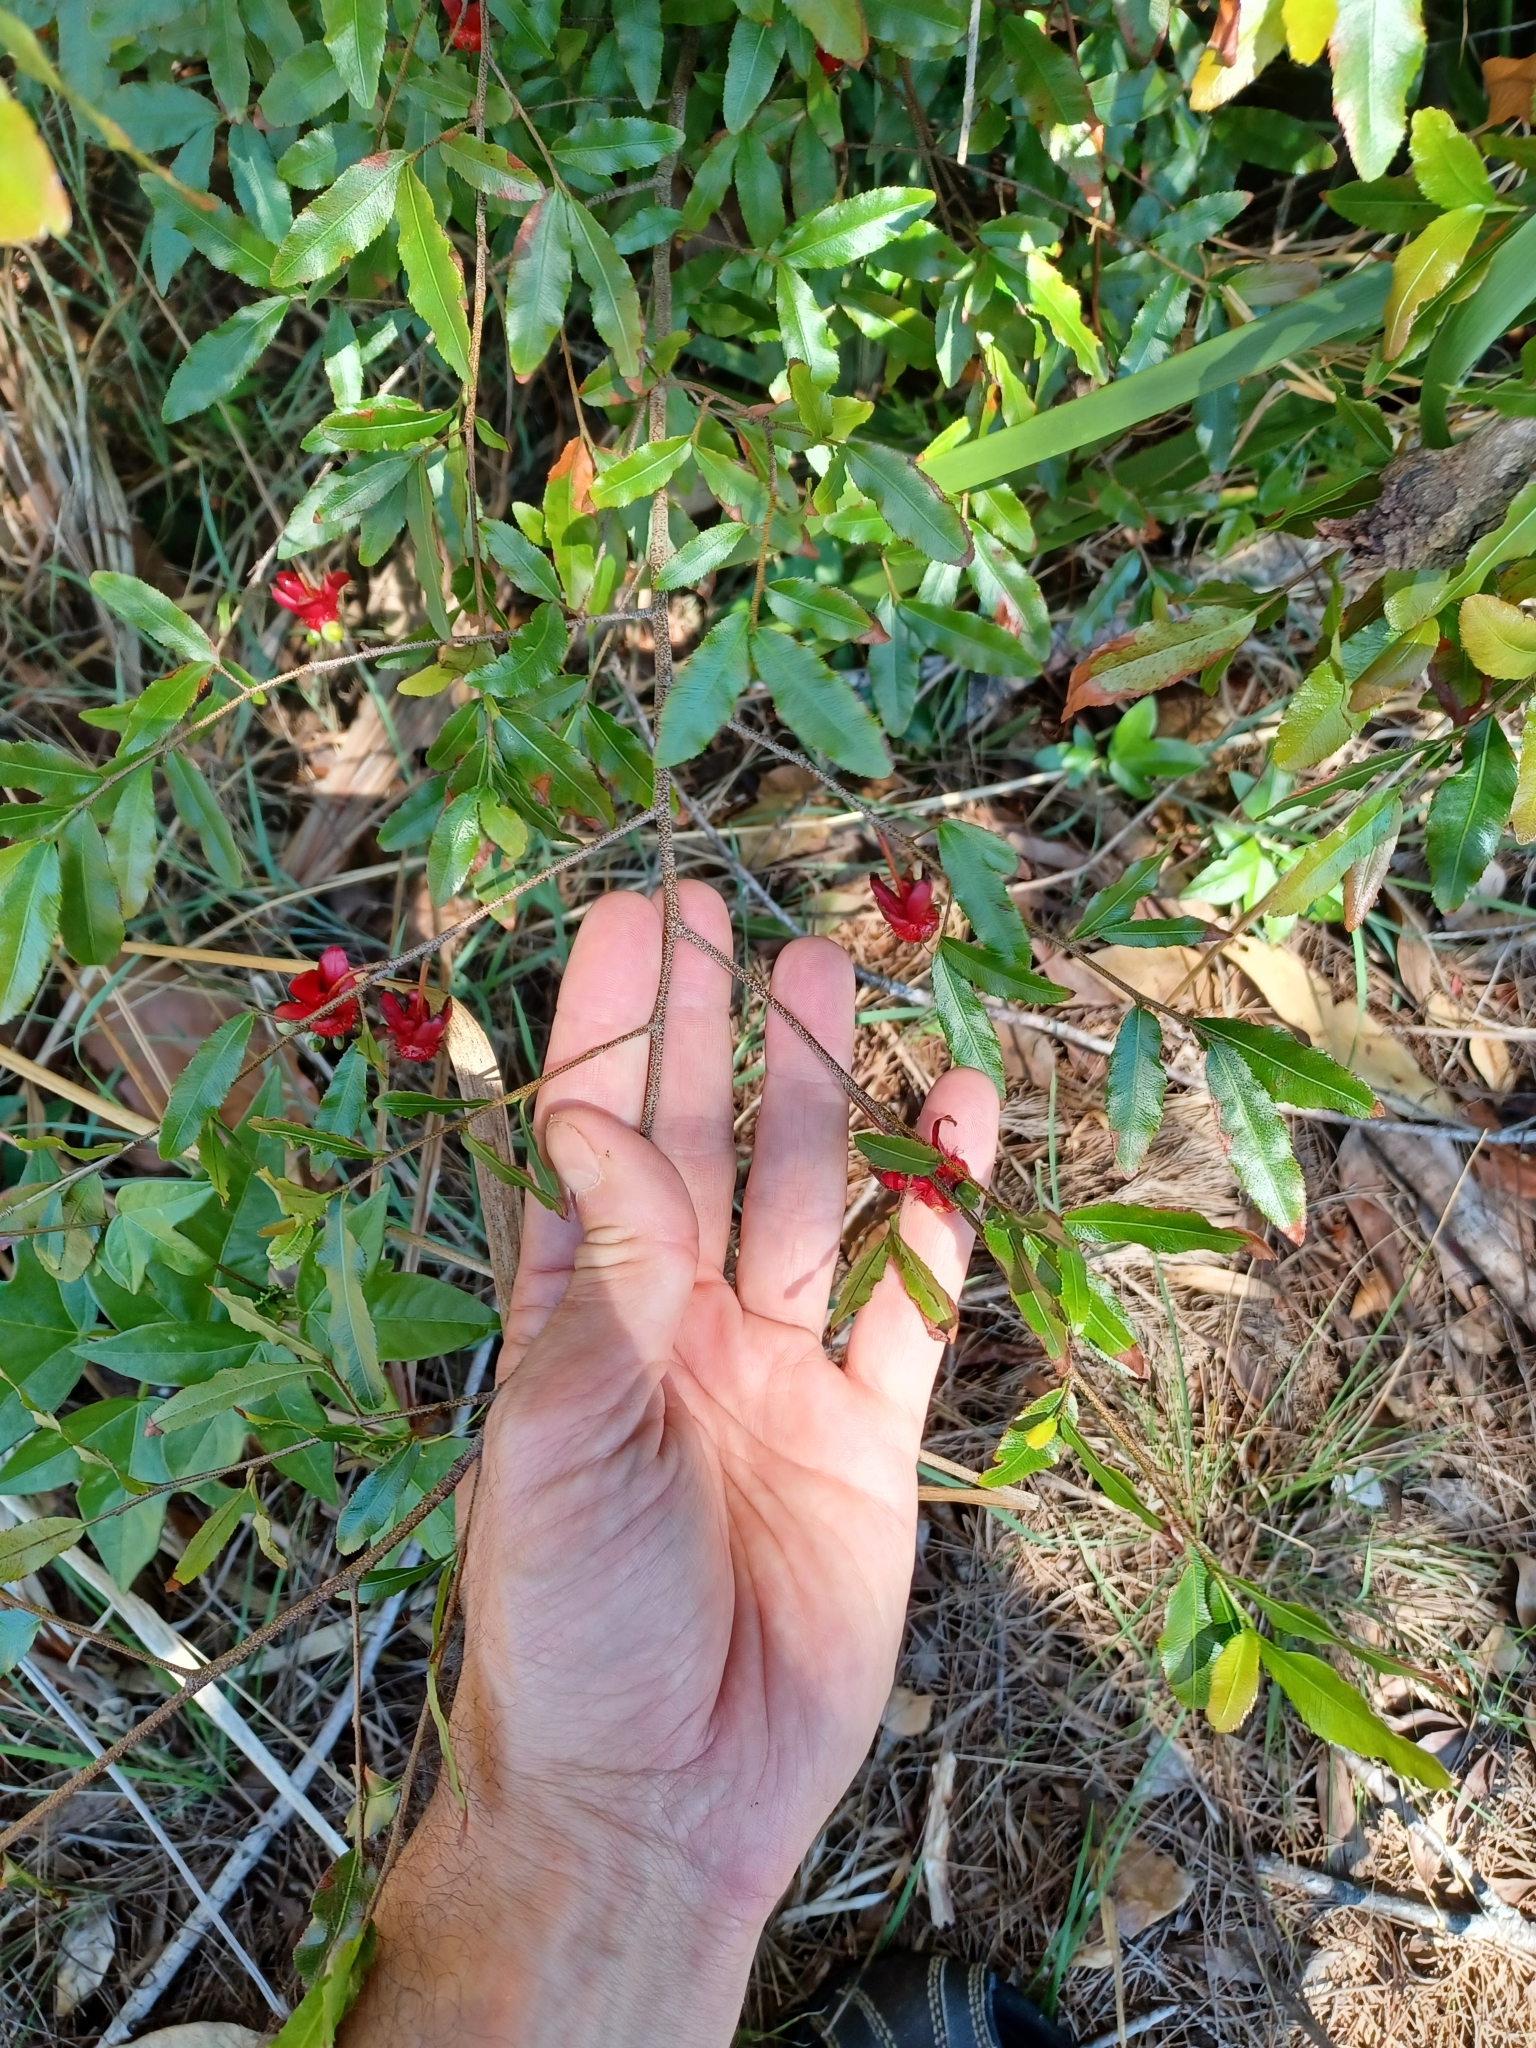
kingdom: Plantae
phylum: Tracheophyta
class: Magnoliopsida
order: Malpighiales
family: Ochnaceae
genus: Ochna
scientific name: Ochna serrulata
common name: Mickey mouse plant
